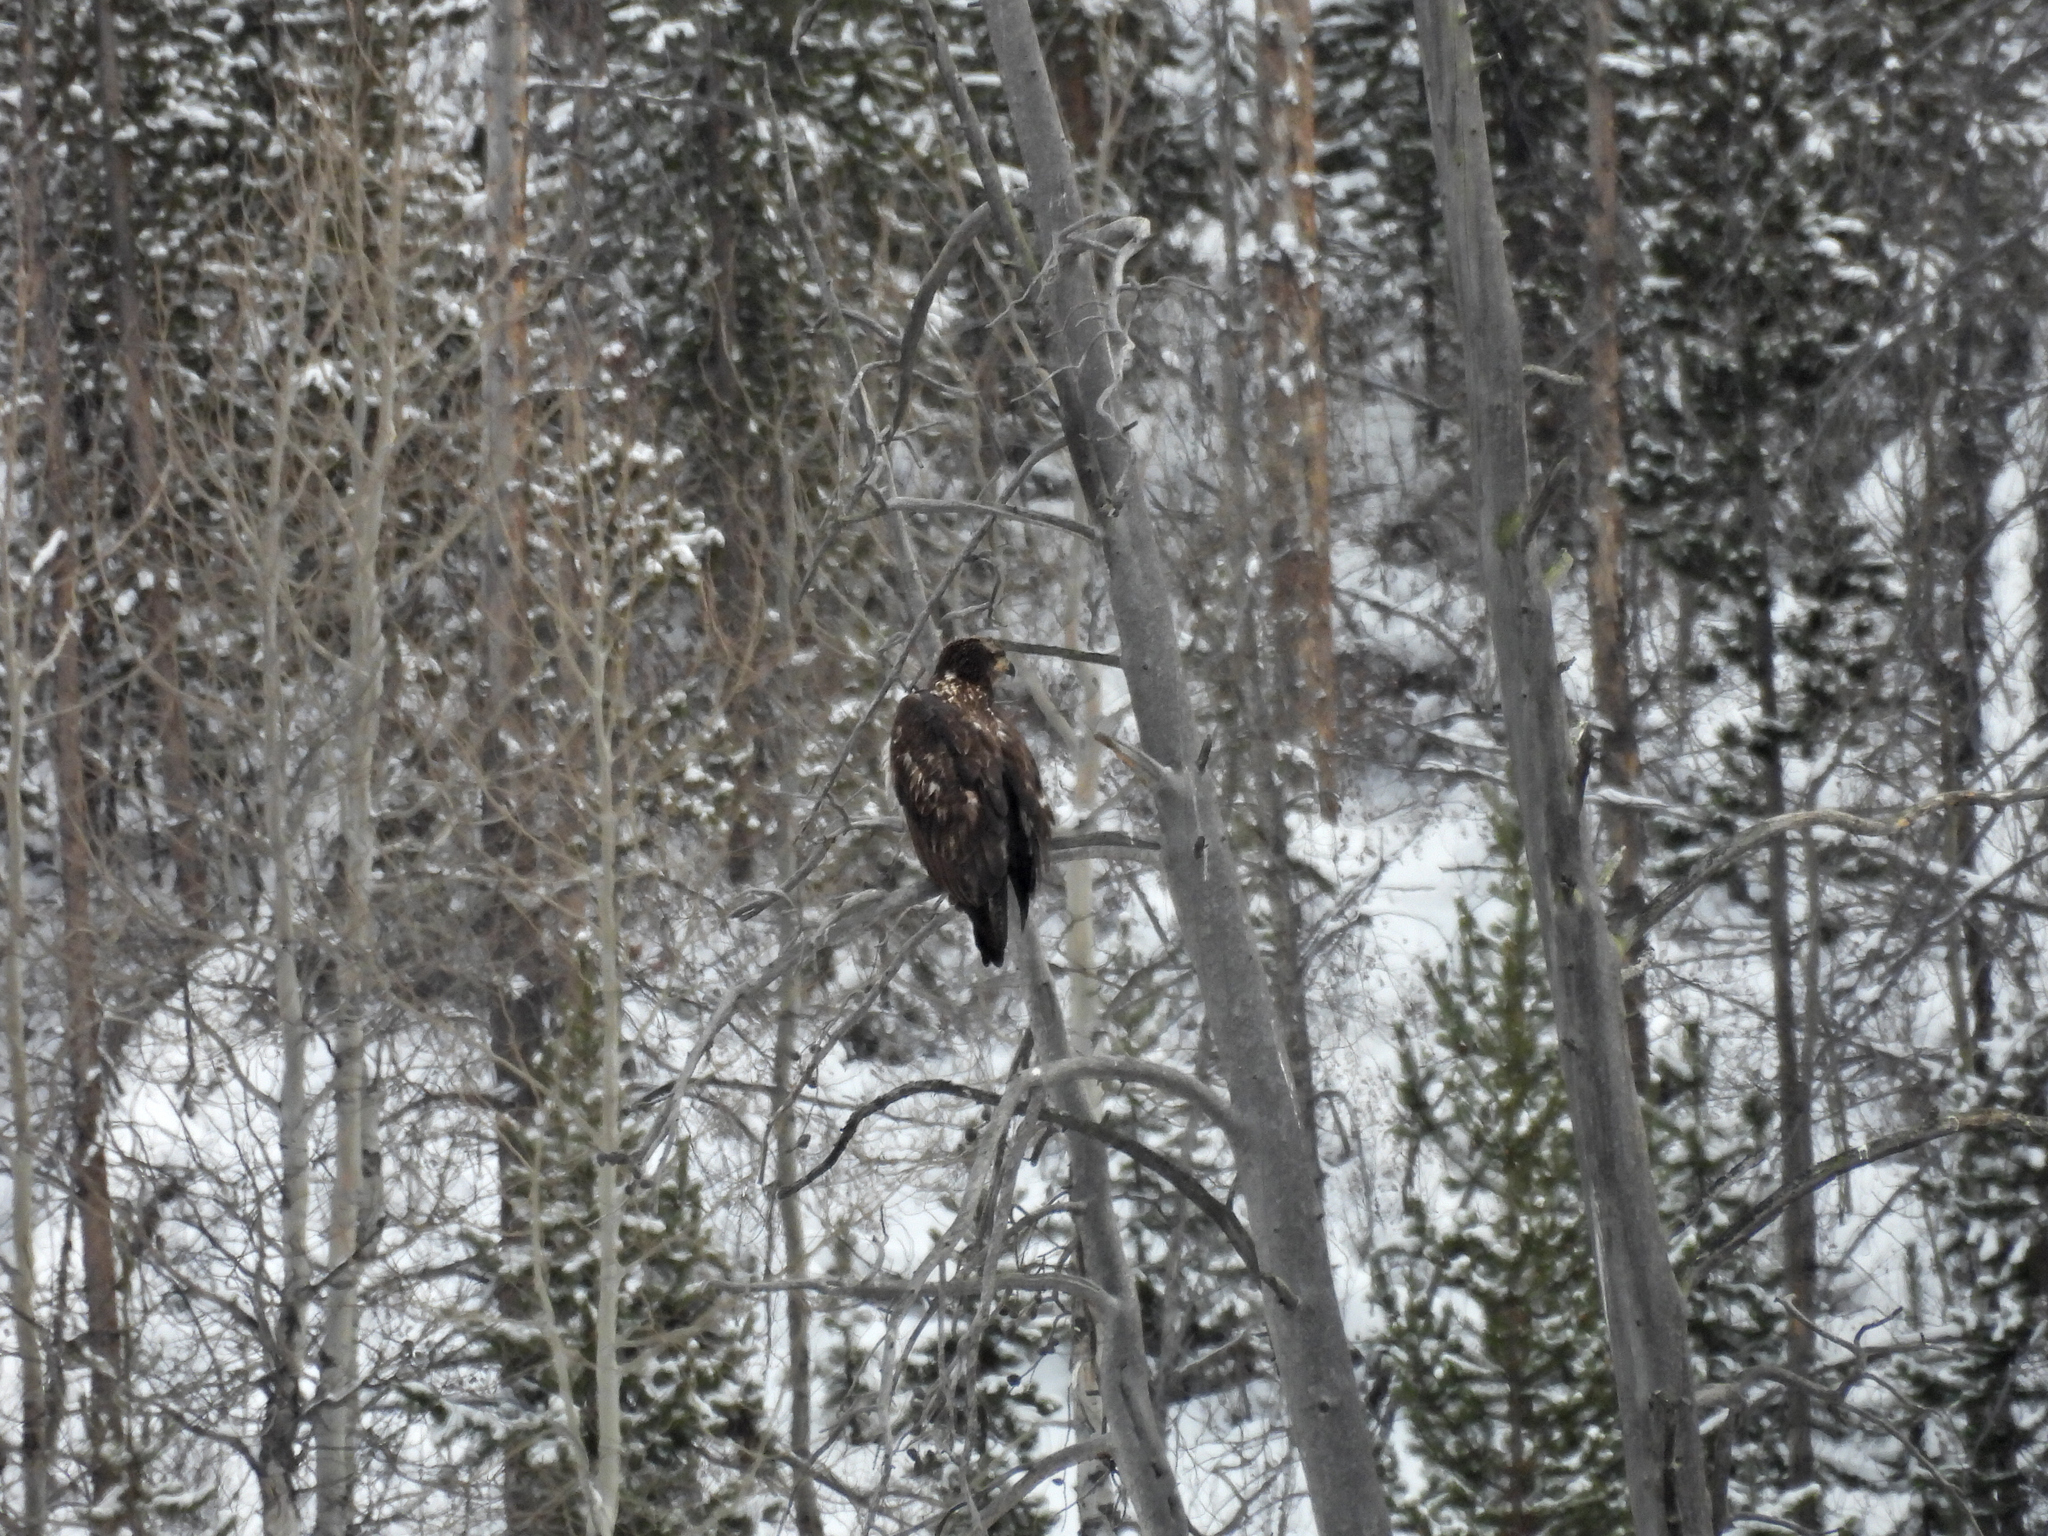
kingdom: Animalia
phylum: Chordata
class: Aves
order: Accipitriformes
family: Accipitridae
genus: Haliaeetus
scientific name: Haliaeetus leucocephalus
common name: Bald eagle
